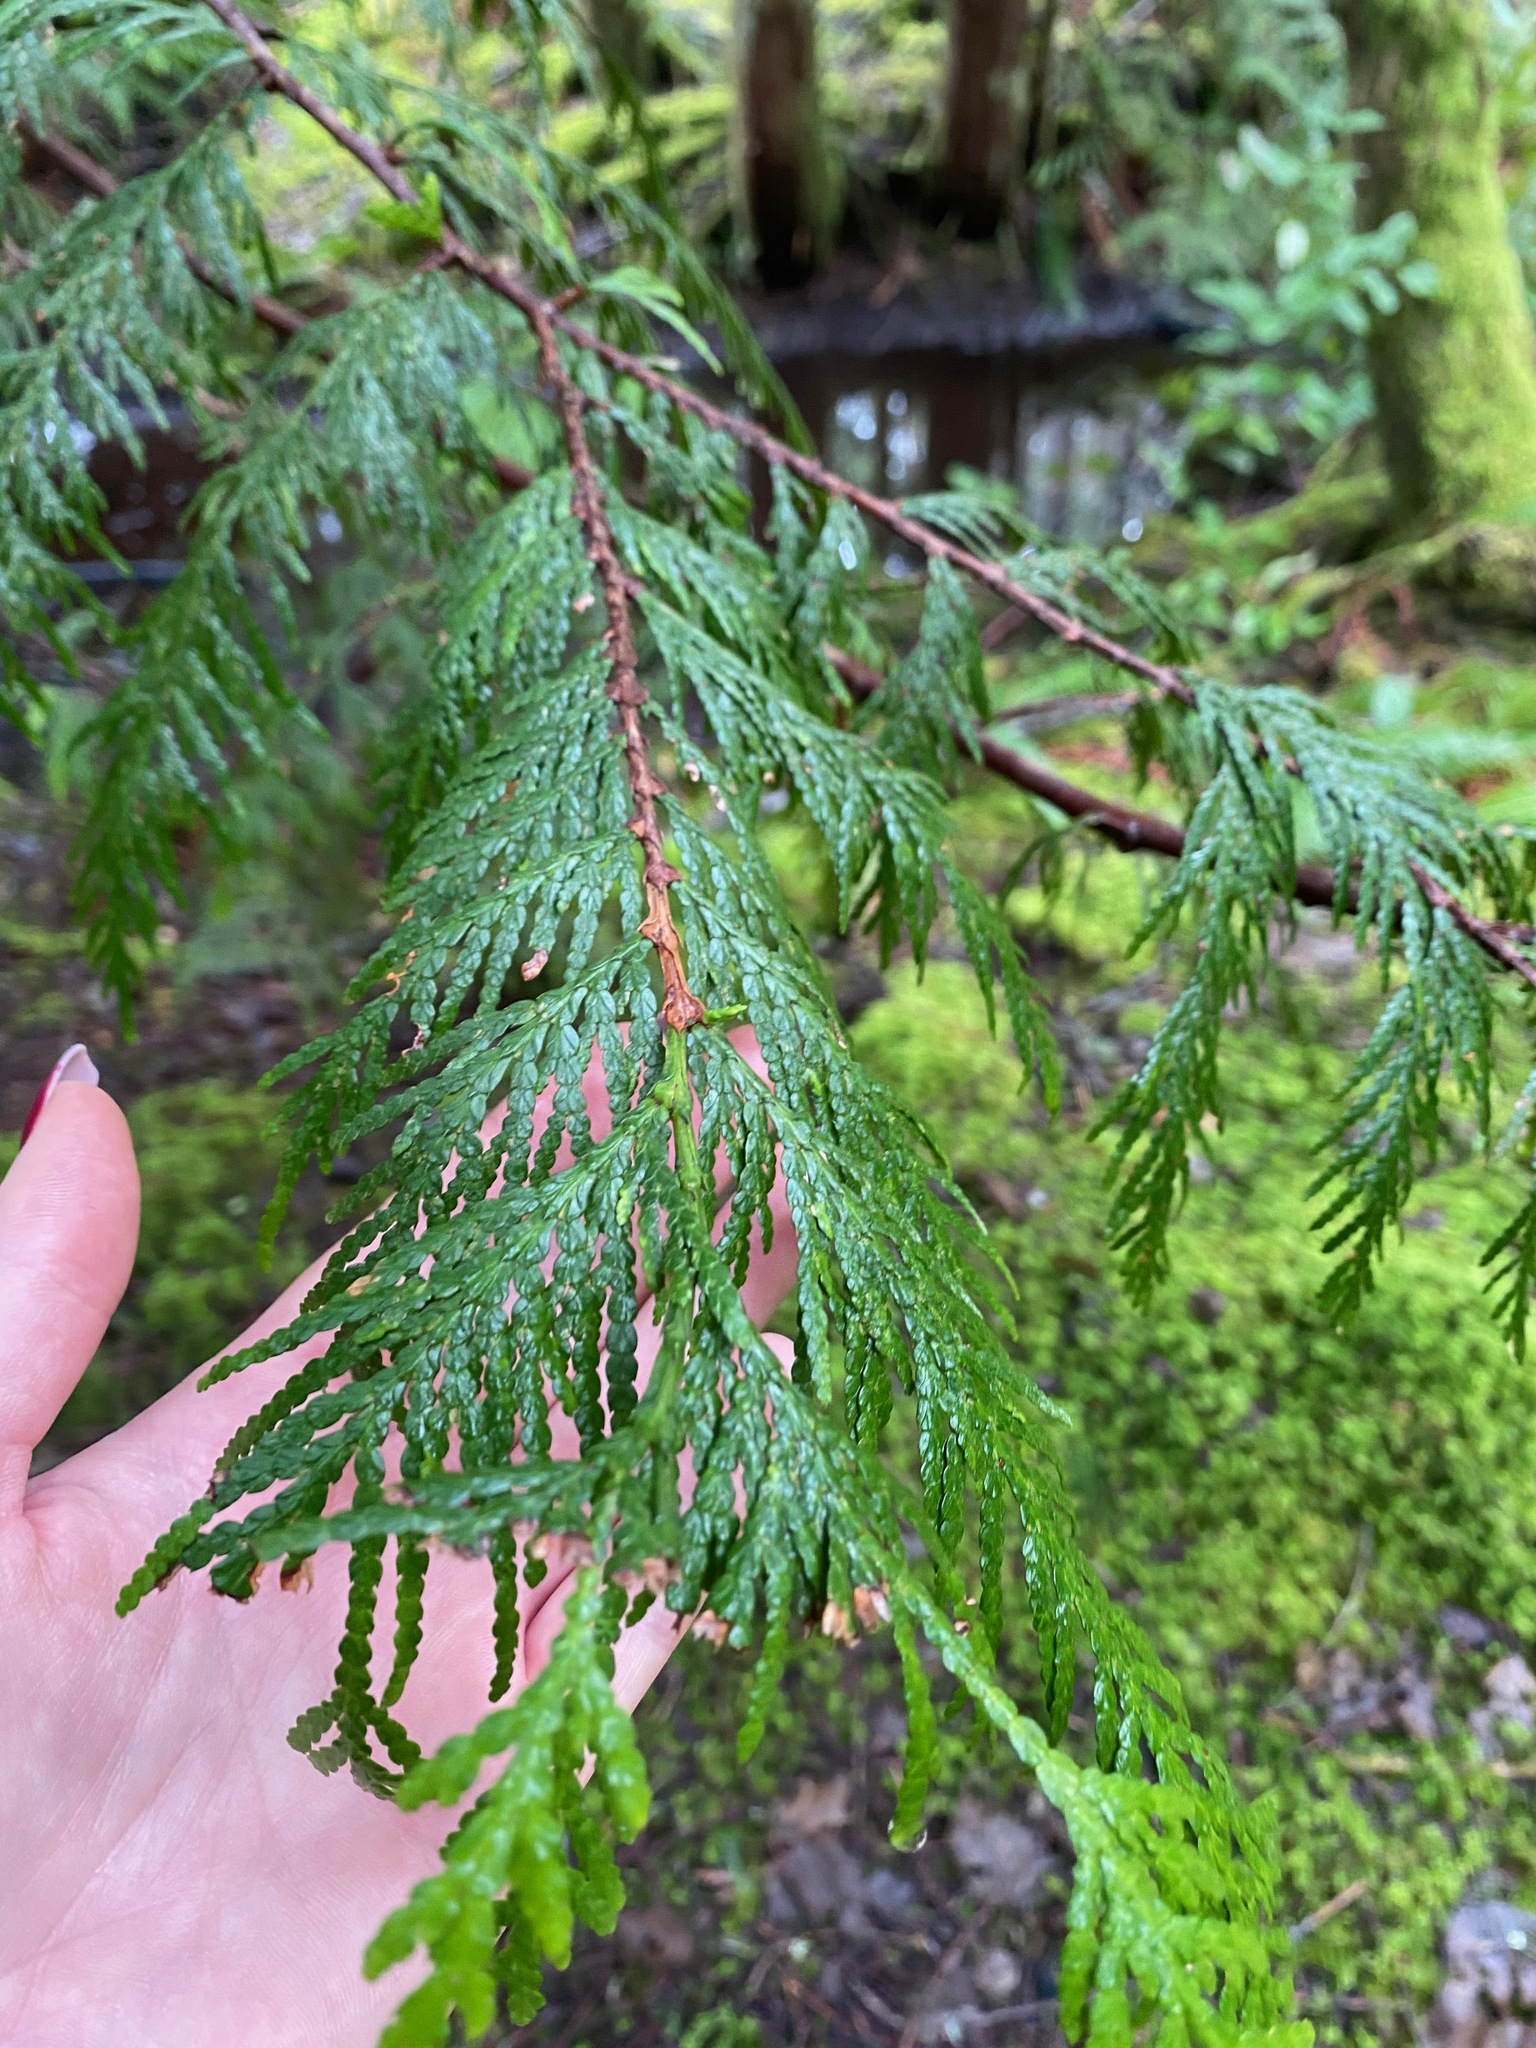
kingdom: Plantae
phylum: Tracheophyta
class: Pinopsida
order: Pinales
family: Cupressaceae
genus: Thuja
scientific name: Thuja plicata
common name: Western red-cedar
